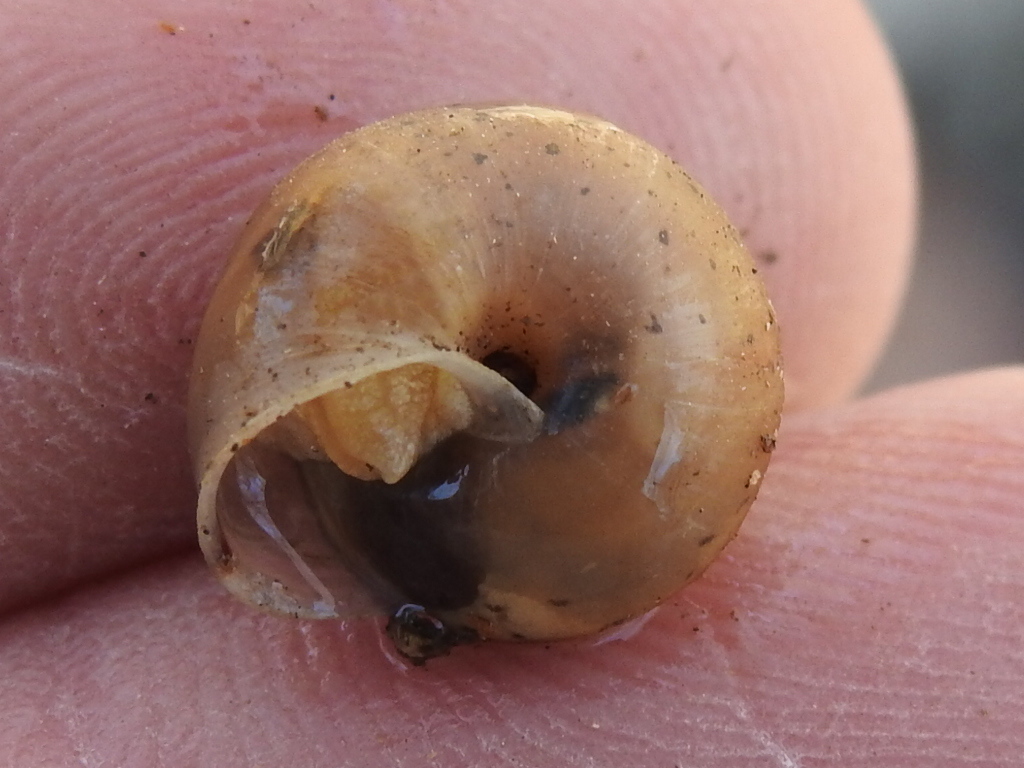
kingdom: Animalia
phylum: Mollusca
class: Gastropoda
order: Stylommatophora
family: Camaenidae
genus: Bradybaena
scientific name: Bradybaena similaris
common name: Asian trampsnail
